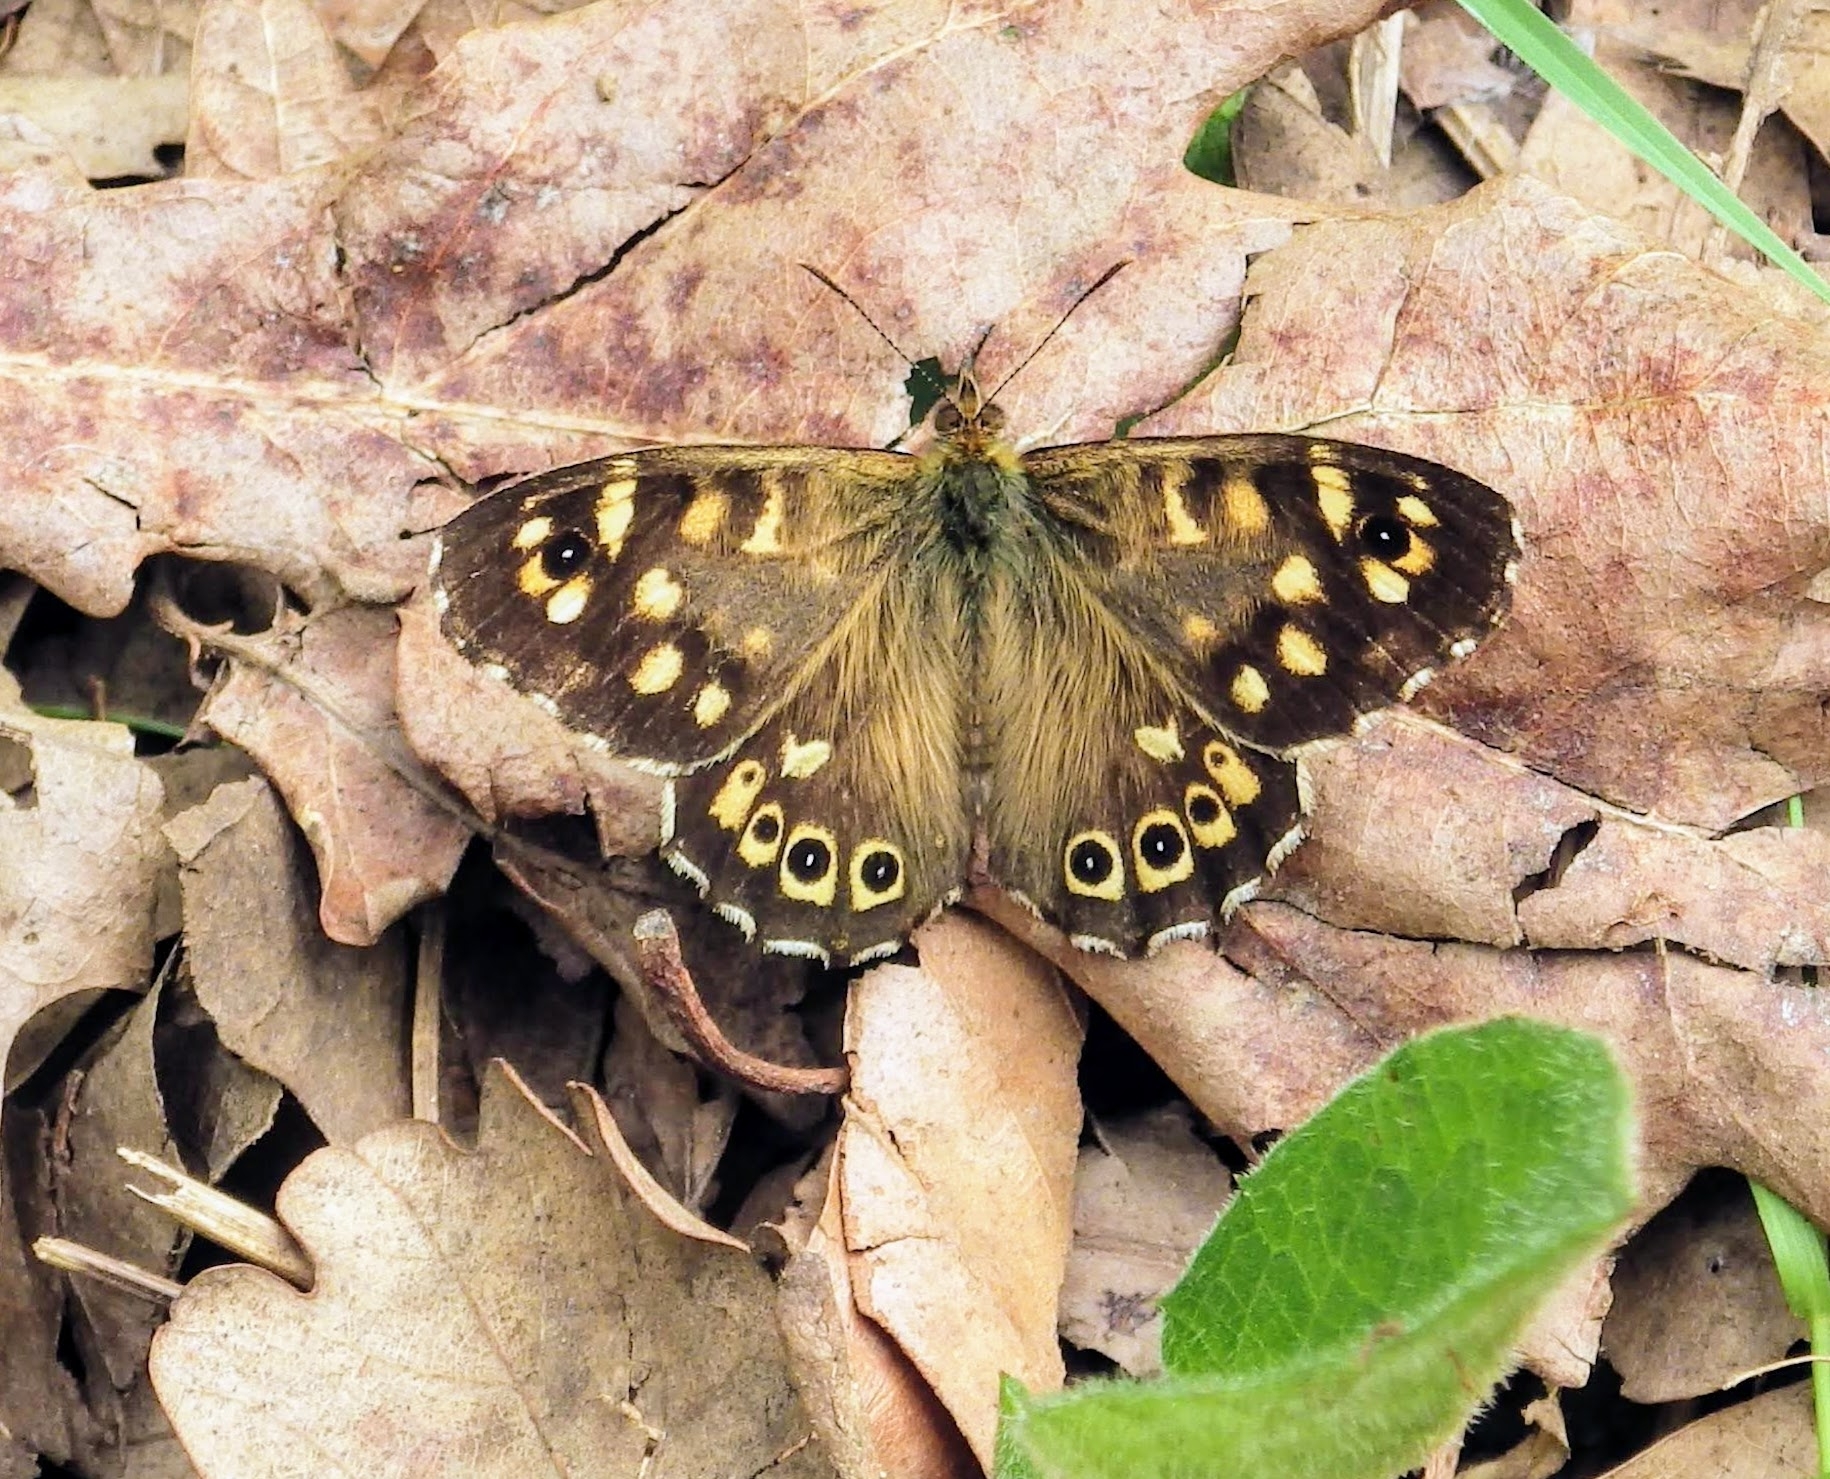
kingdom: Animalia
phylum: Arthropoda
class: Insecta
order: Lepidoptera
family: Nymphalidae
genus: Pararge
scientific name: Pararge aegeria
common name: Speckled wood
